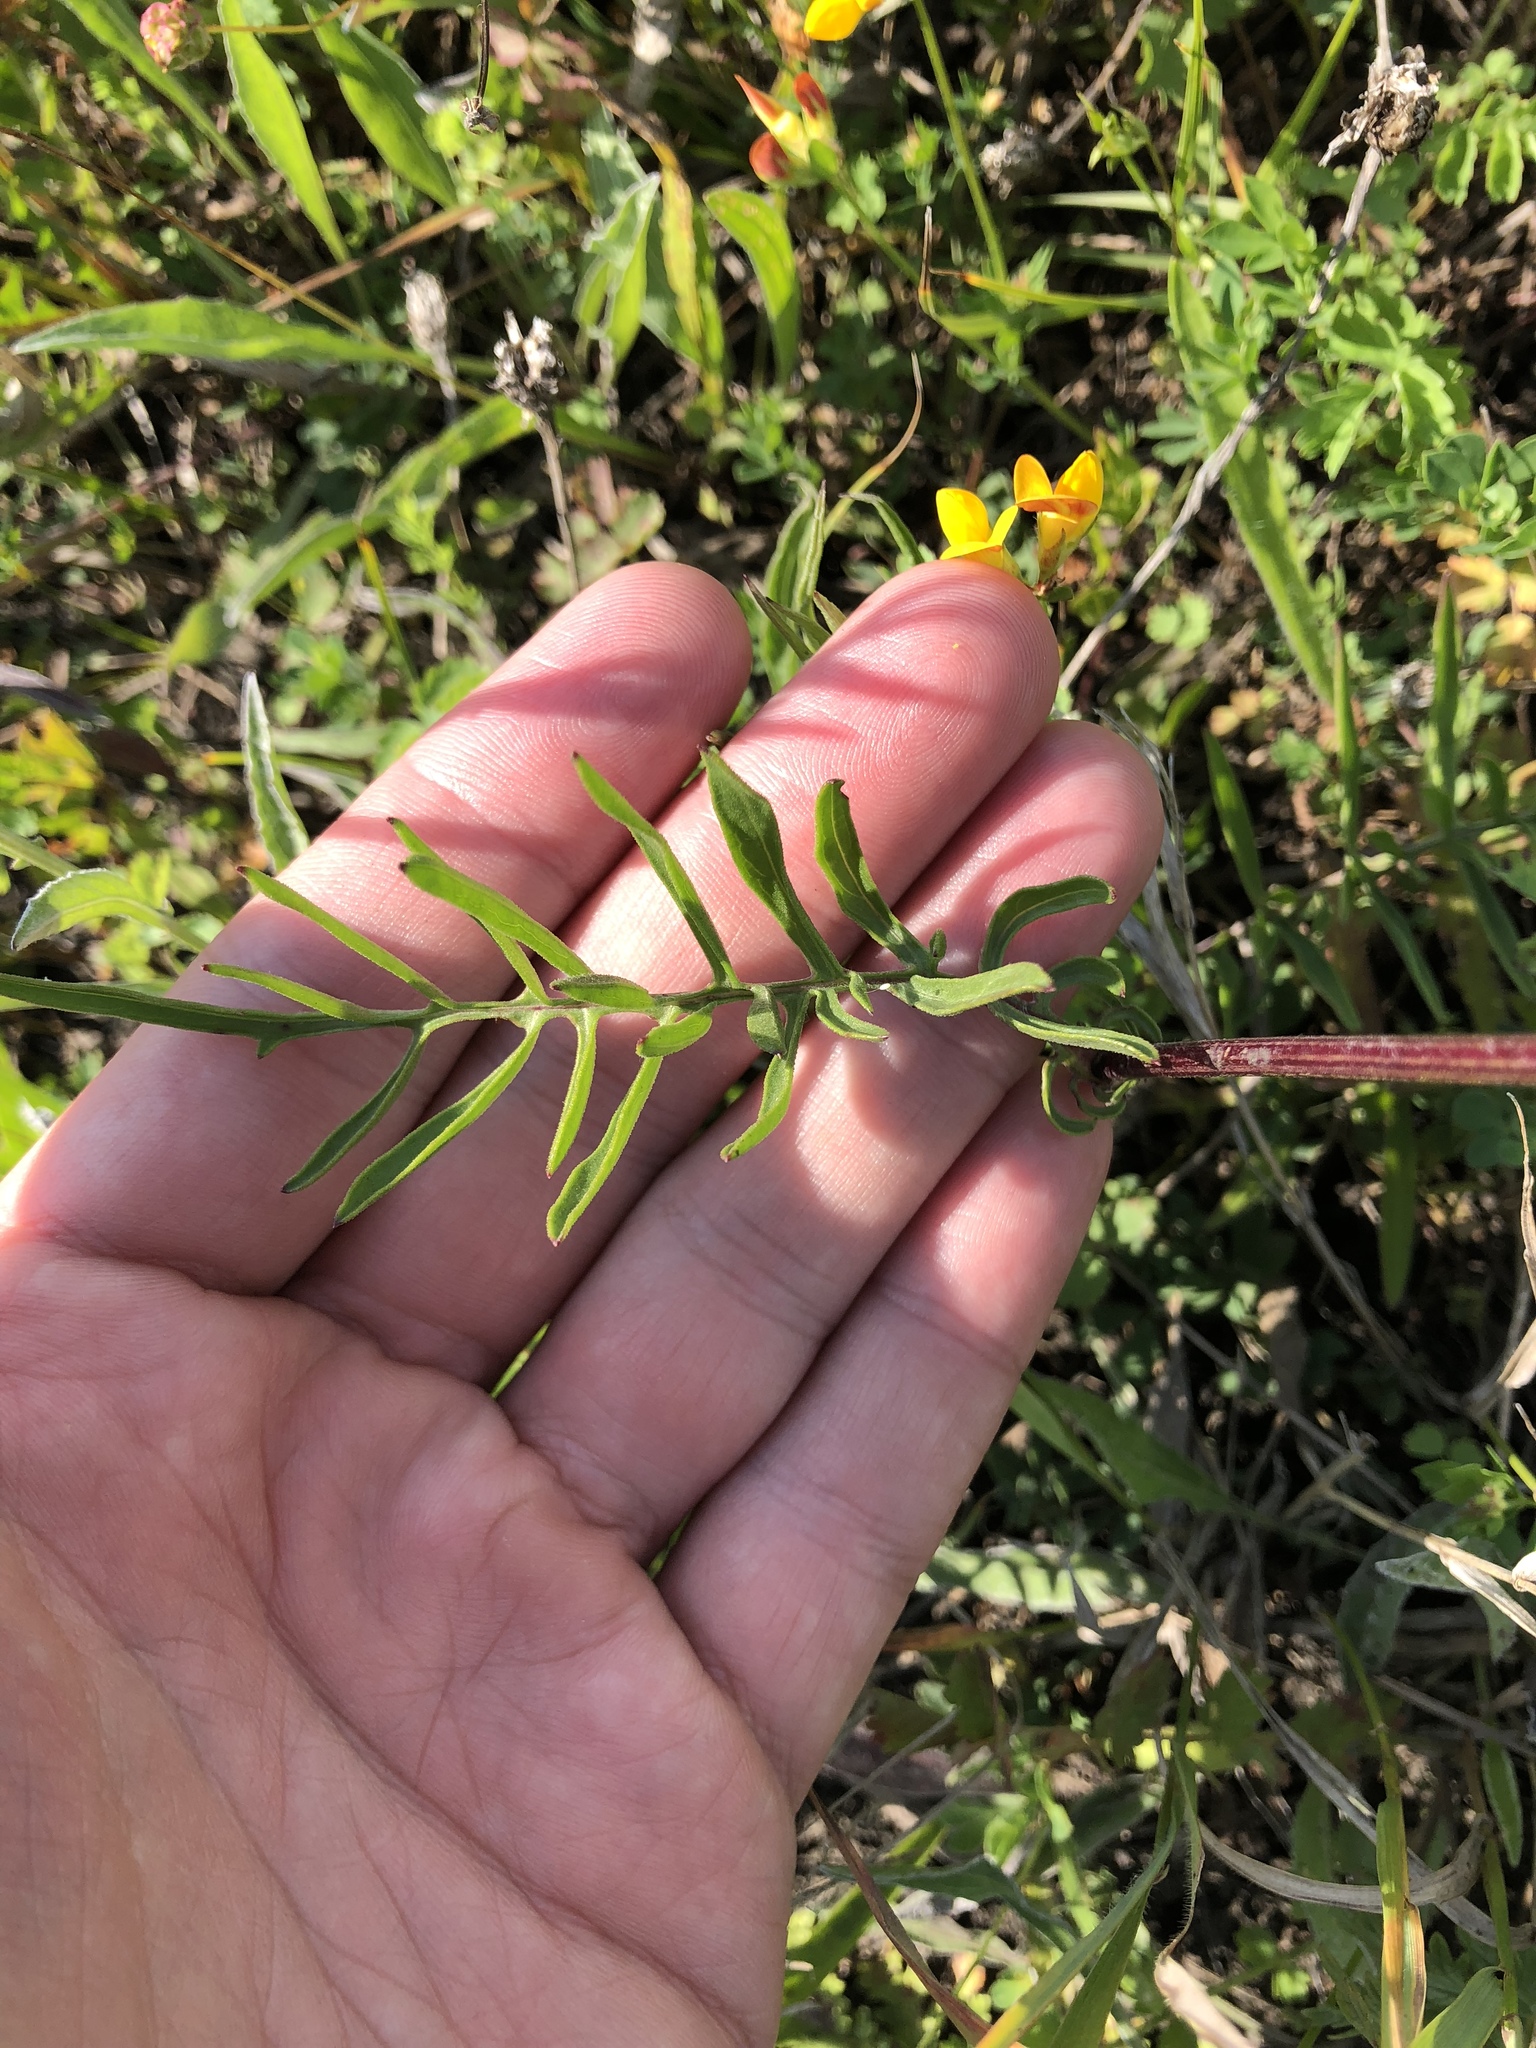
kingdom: Plantae
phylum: Tracheophyta
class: Magnoliopsida
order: Asterales
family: Asteraceae
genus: Centaurea
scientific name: Centaurea scabiosa
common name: Greater knapweed
